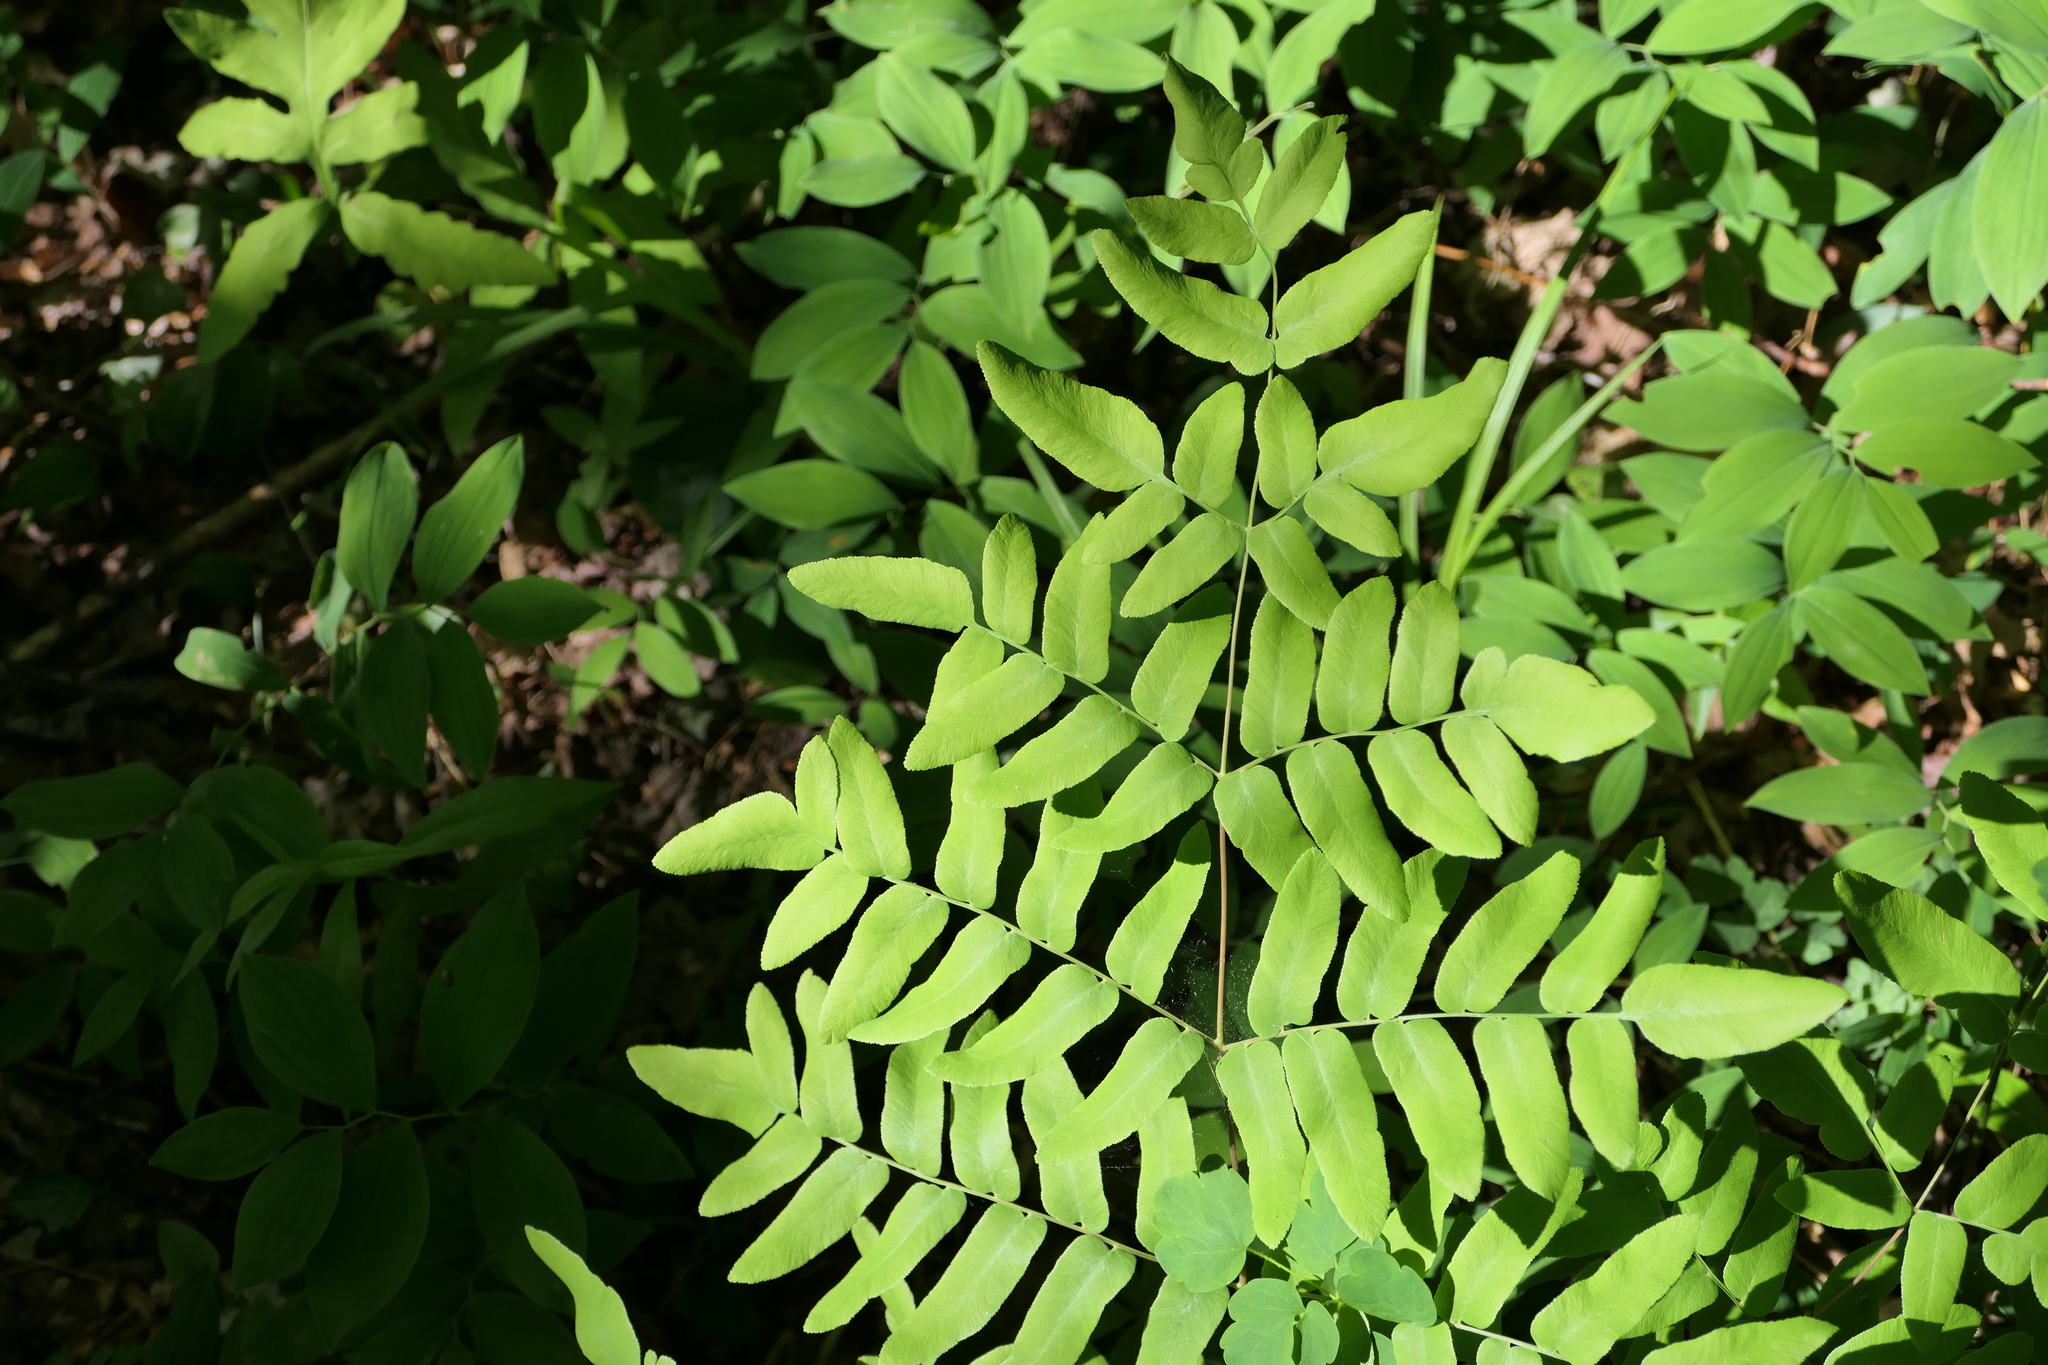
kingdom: Plantae
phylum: Tracheophyta
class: Polypodiopsida
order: Osmundales
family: Osmundaceae
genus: Osmunda
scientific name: Osmunda spectabilis
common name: American royal fern
